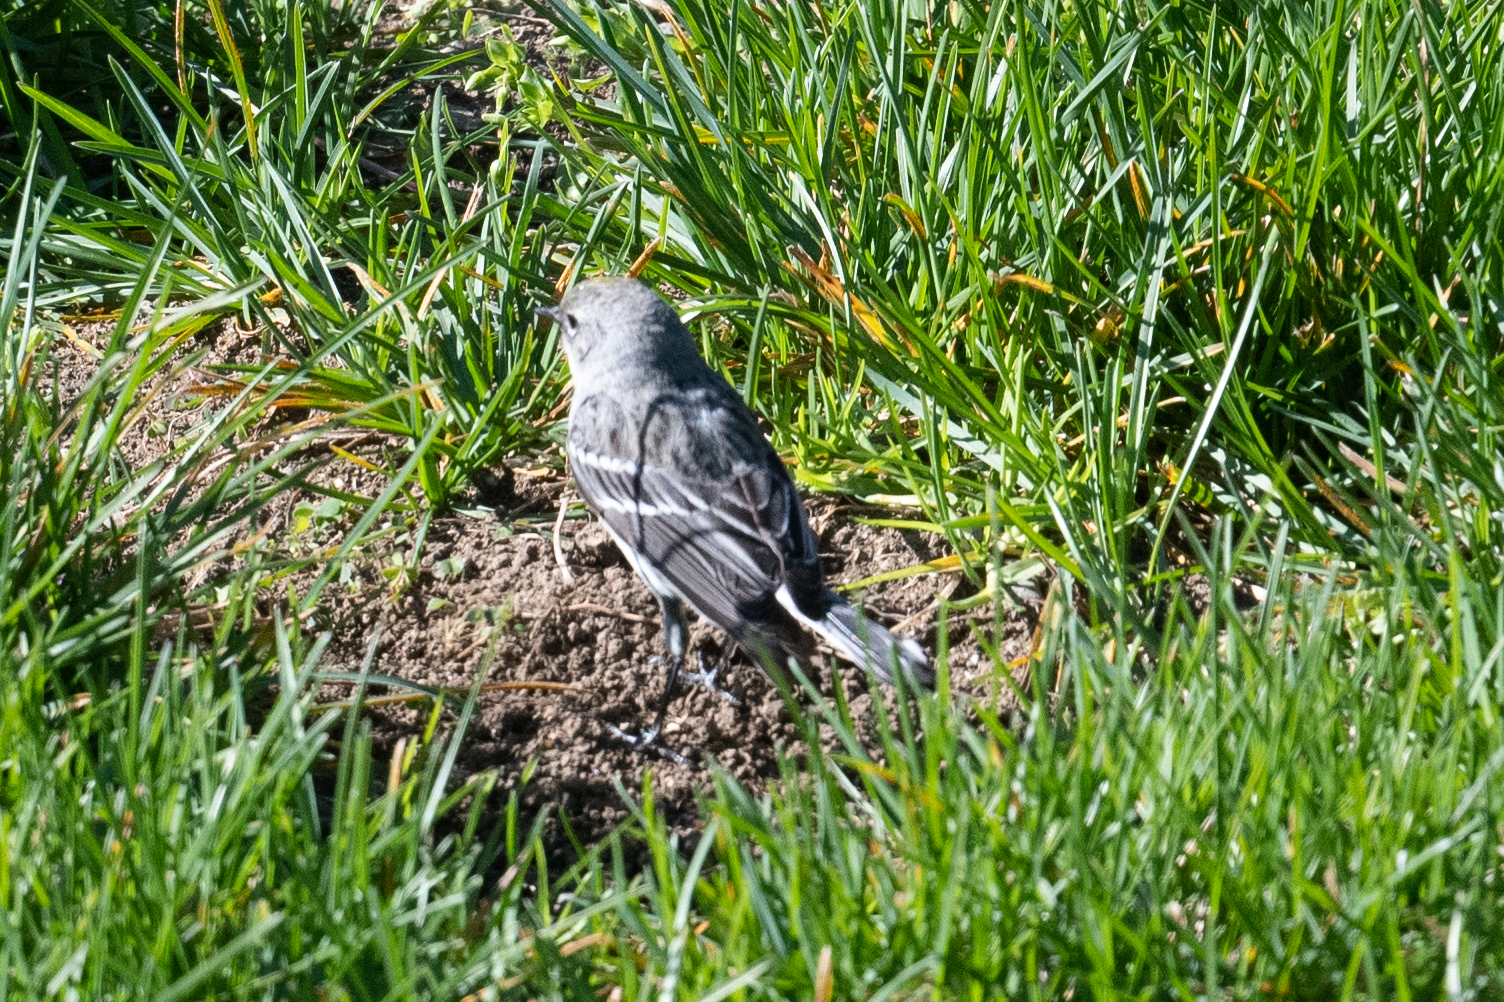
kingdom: Animalia
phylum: Chordata
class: Aves
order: Passeriformes
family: Parulidae
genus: Setophaga
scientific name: Setophaga coronata
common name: Myrtle warbler
